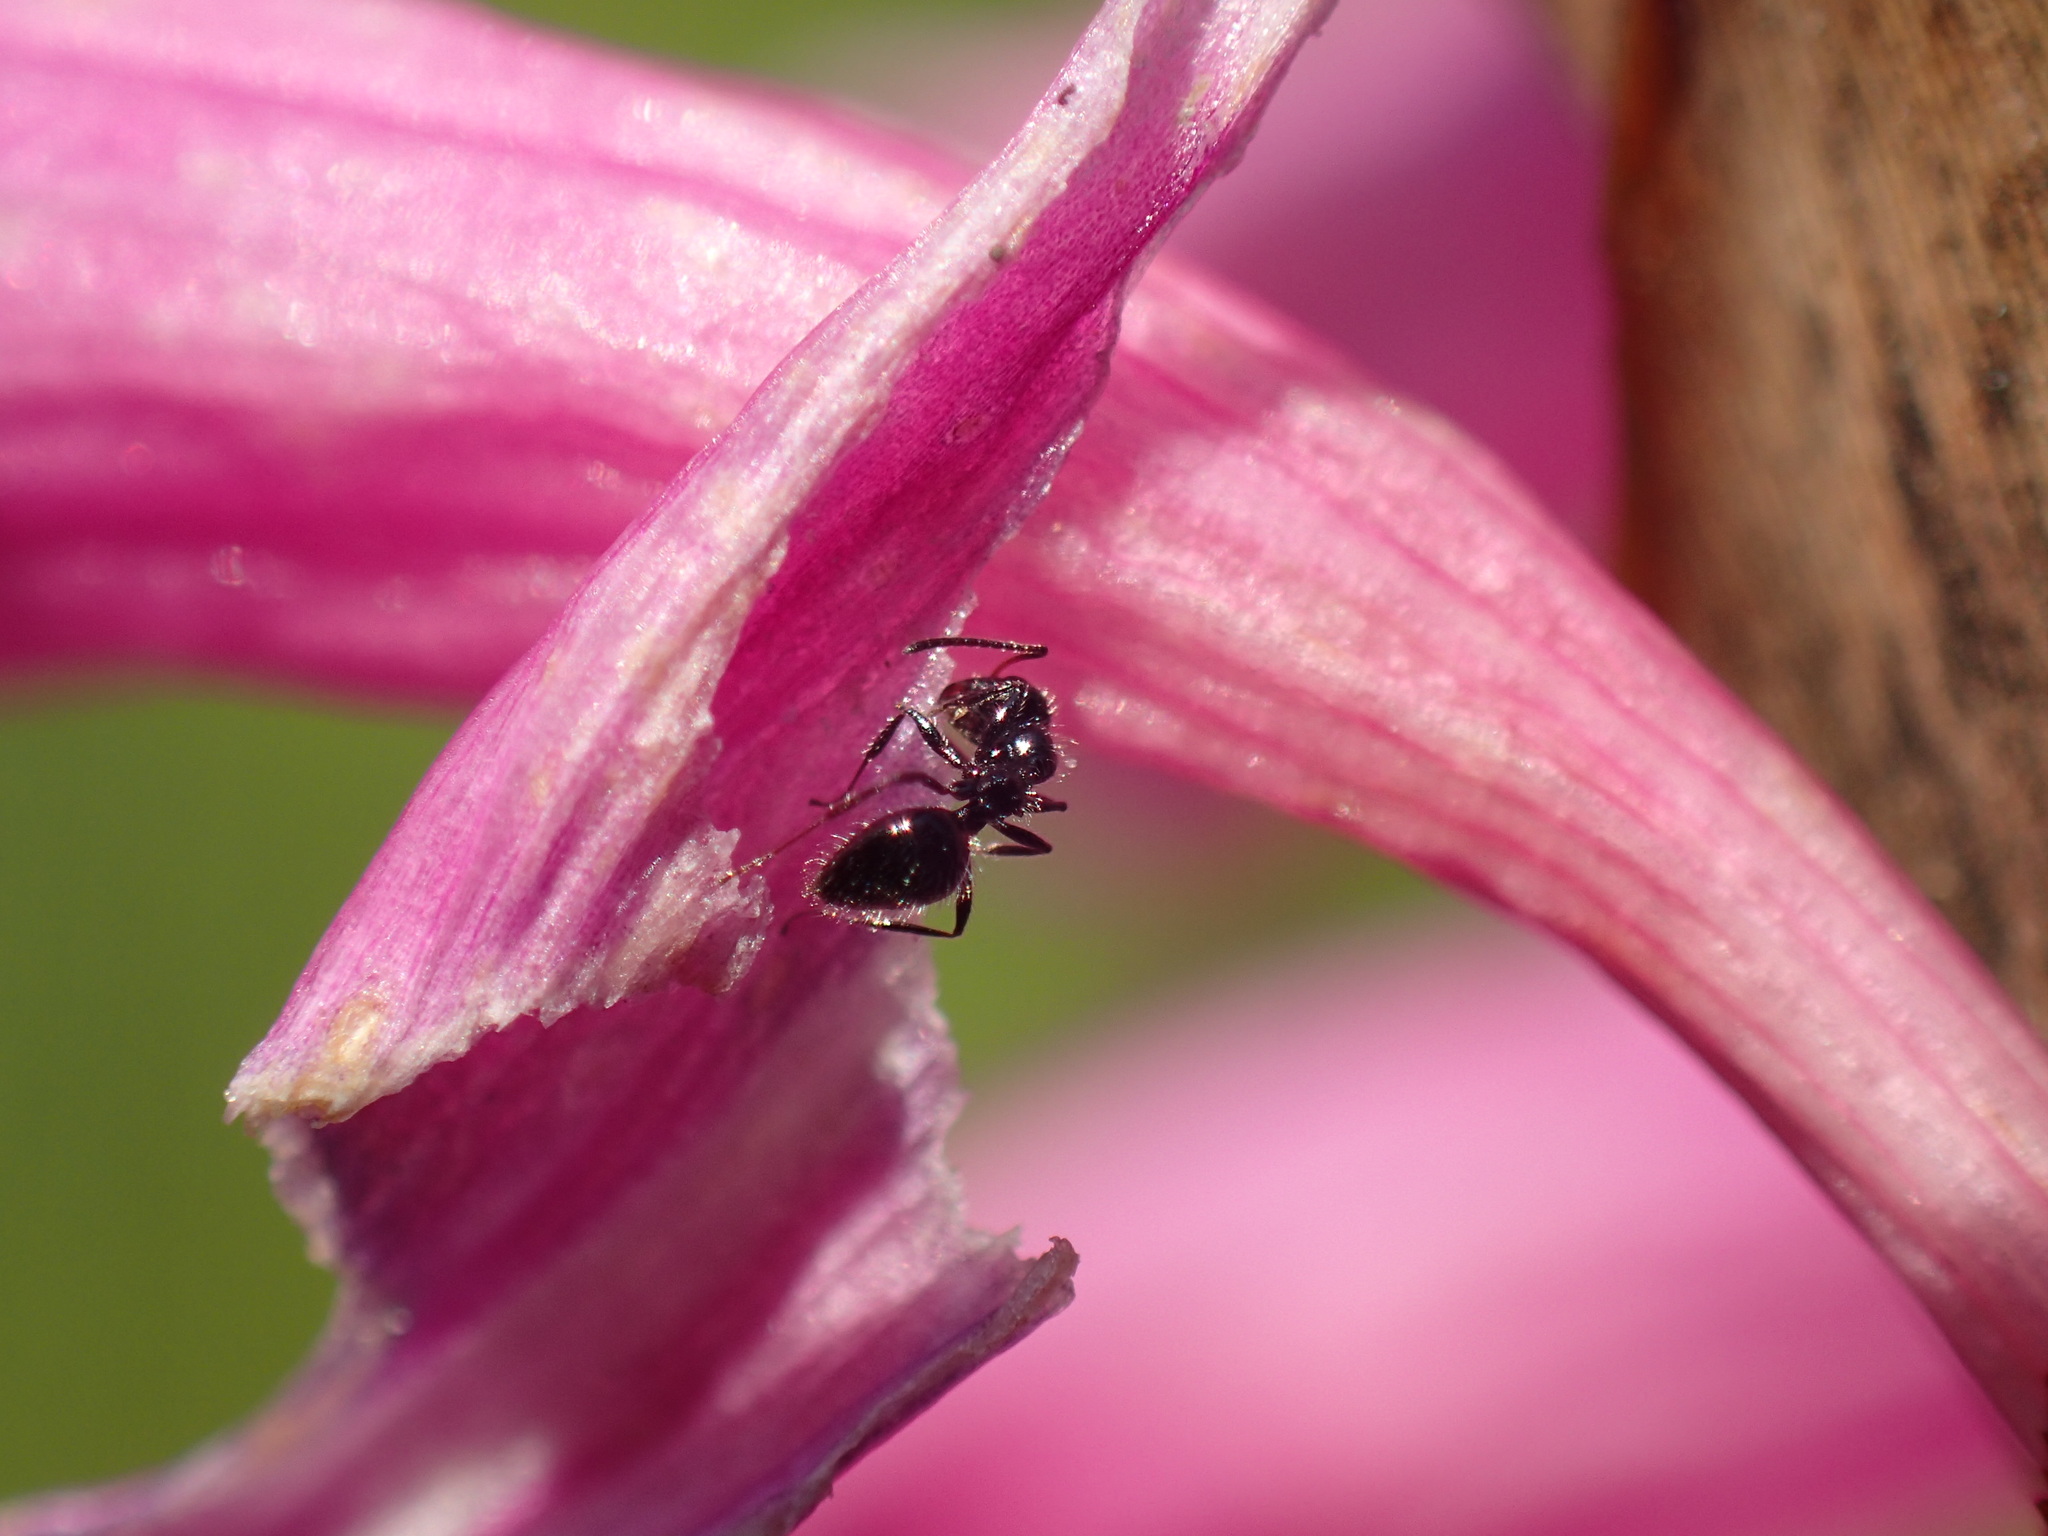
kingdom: Animalia
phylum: Arthropoda
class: Insecta
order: Hymenoptera
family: Formicidae
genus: Lepisiota
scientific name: Lepisiota crinita
